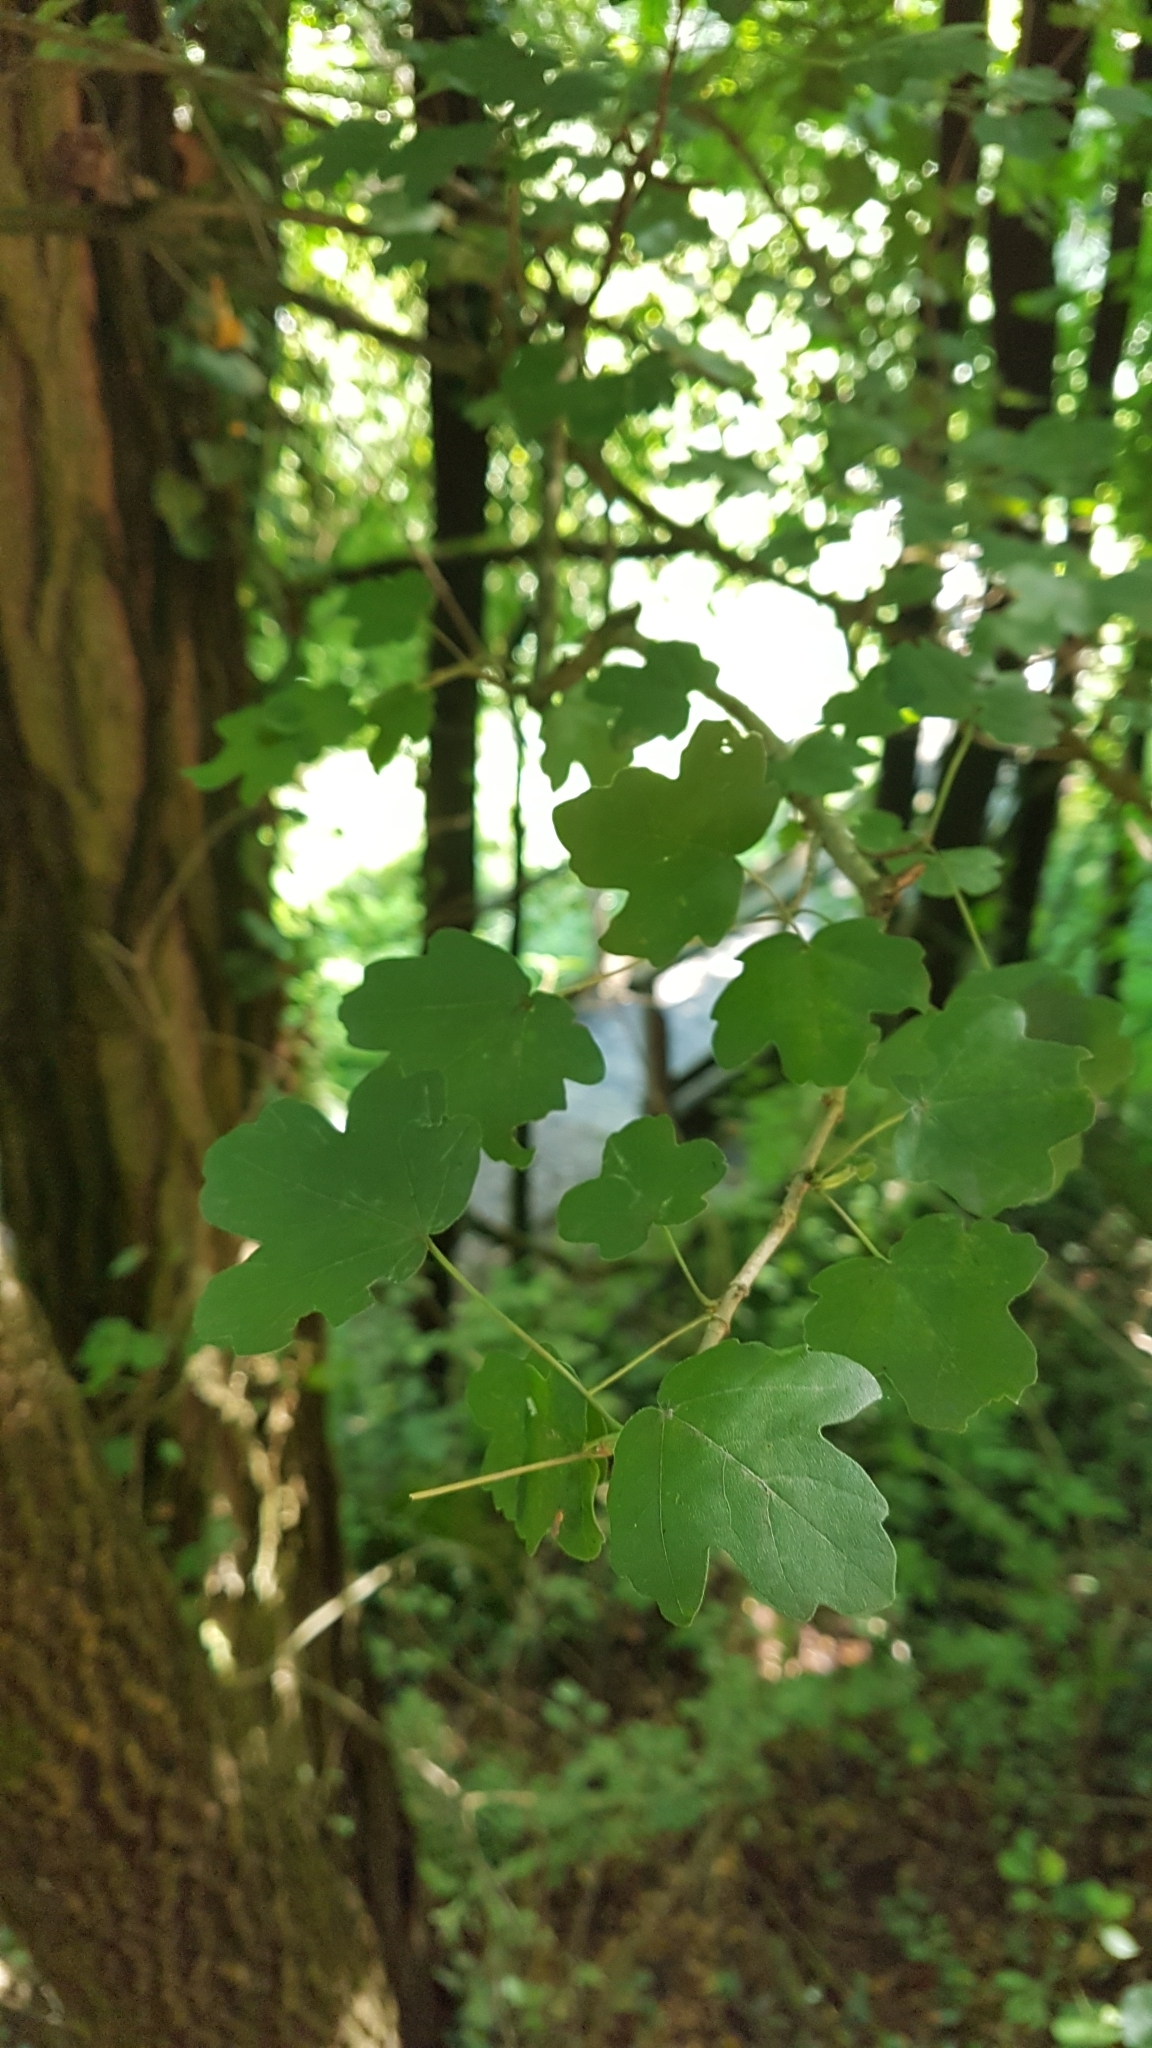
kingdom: Plantae
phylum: Tracheophyta
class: Magnoliopsida
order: Sapindales
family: Sapindaceae
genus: Acer
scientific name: Acer campestre
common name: Field maple
